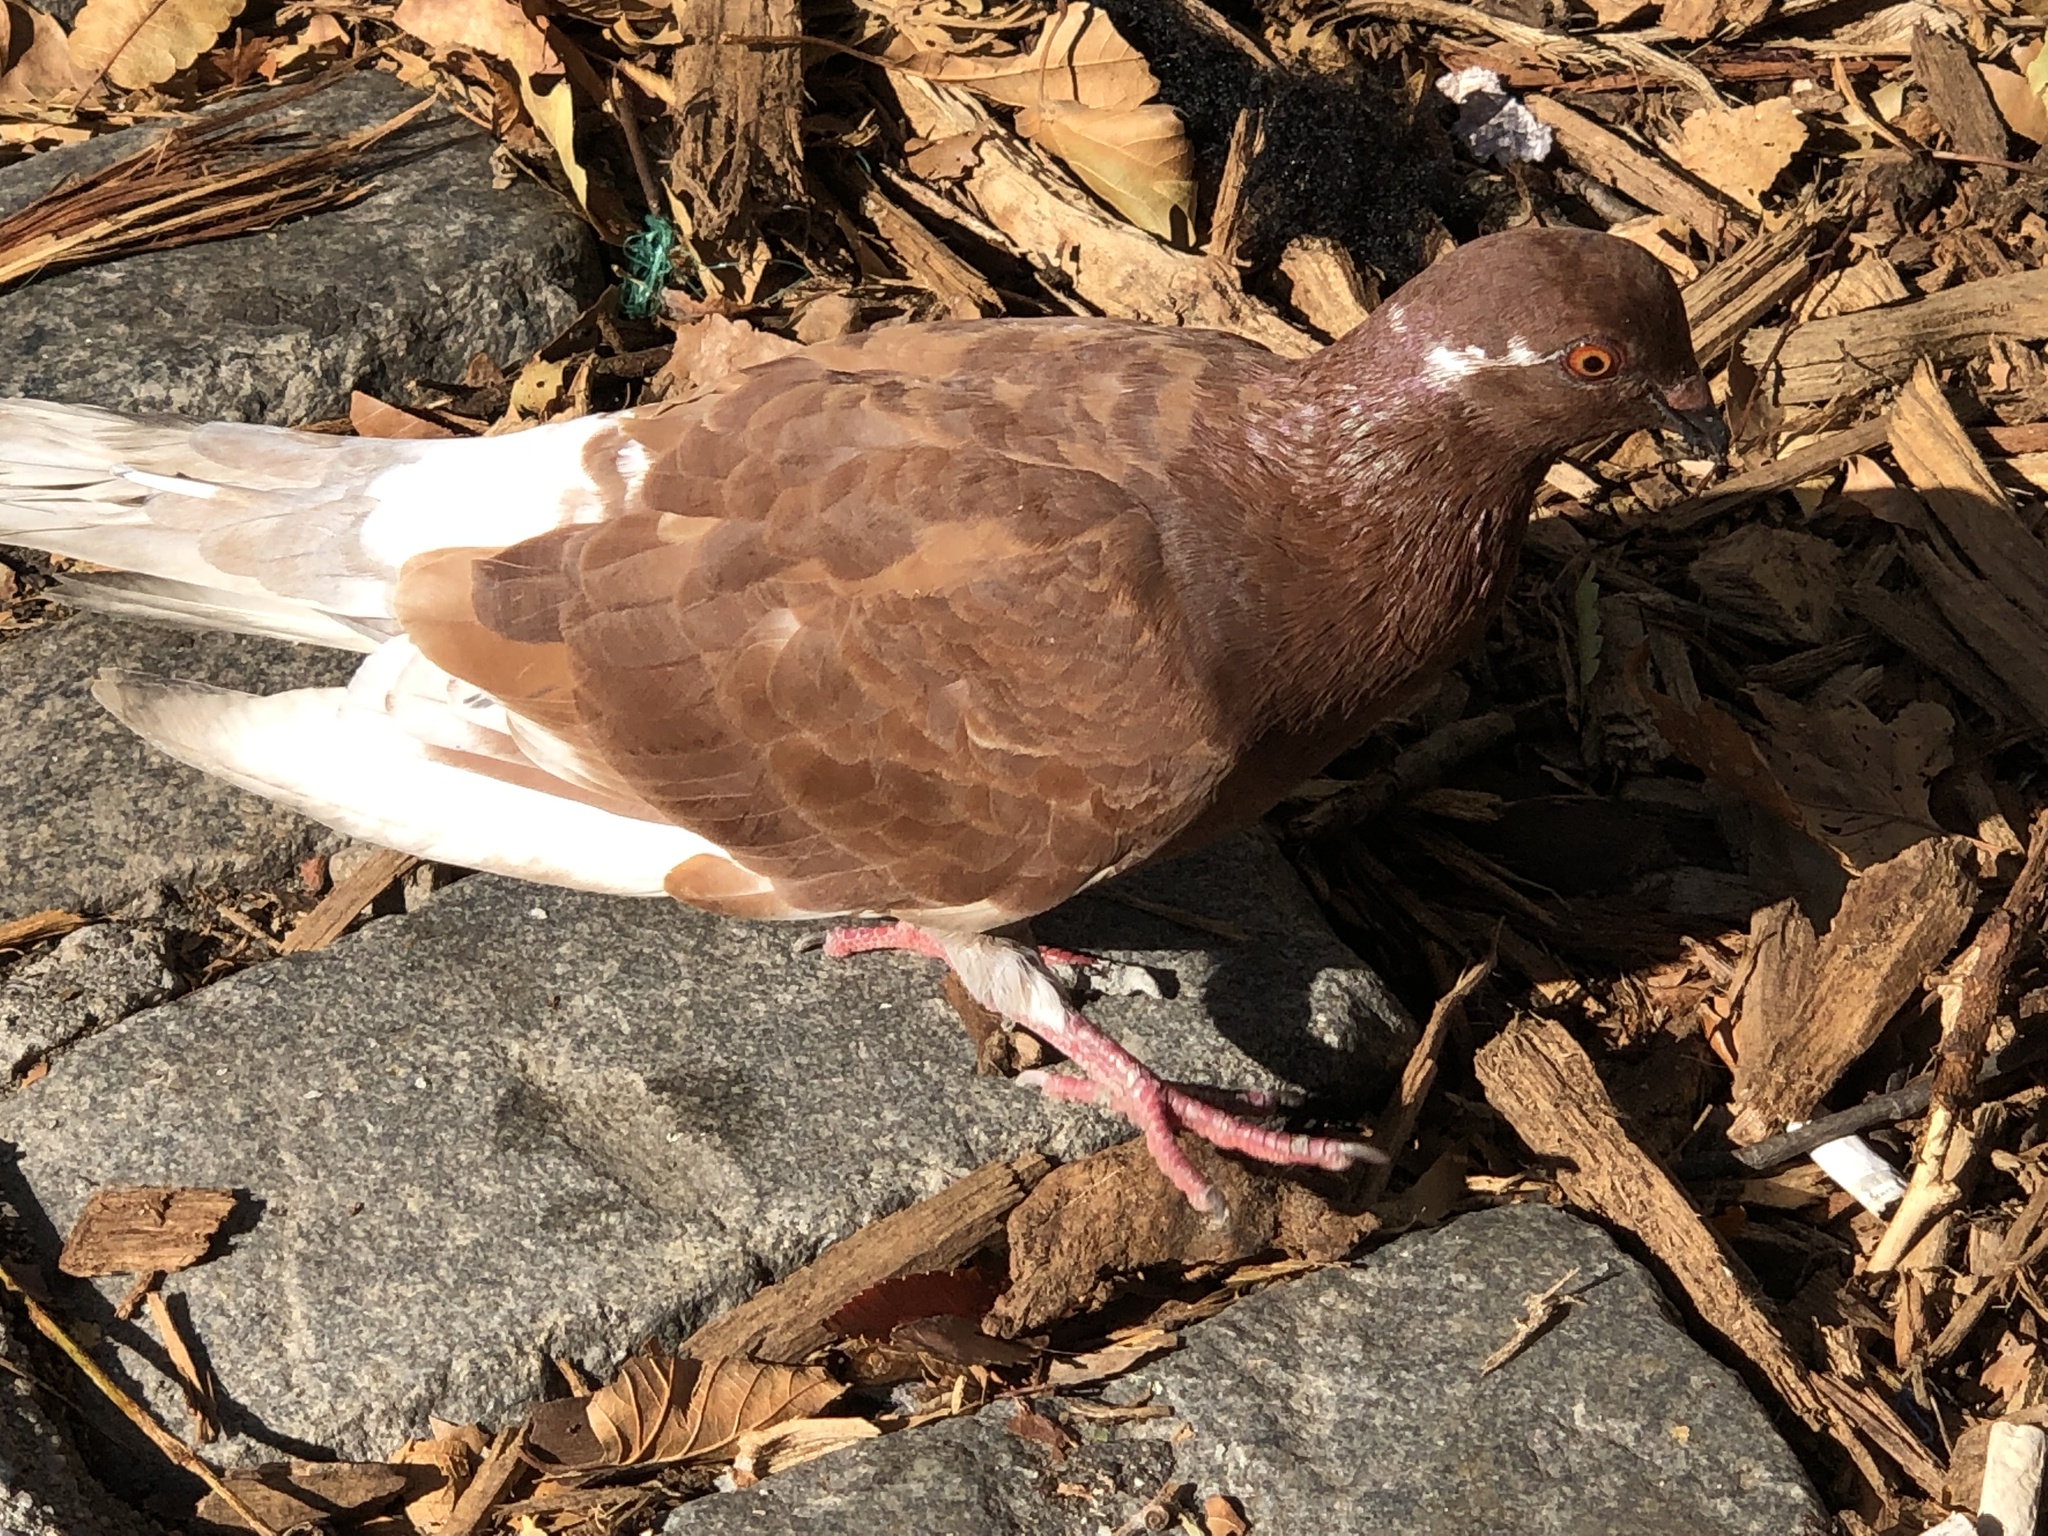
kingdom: Animalia
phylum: Chordata
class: Aves
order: Columbiformes
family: Columbidae
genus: Columba
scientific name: Columba livia
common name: Rock pigeon
